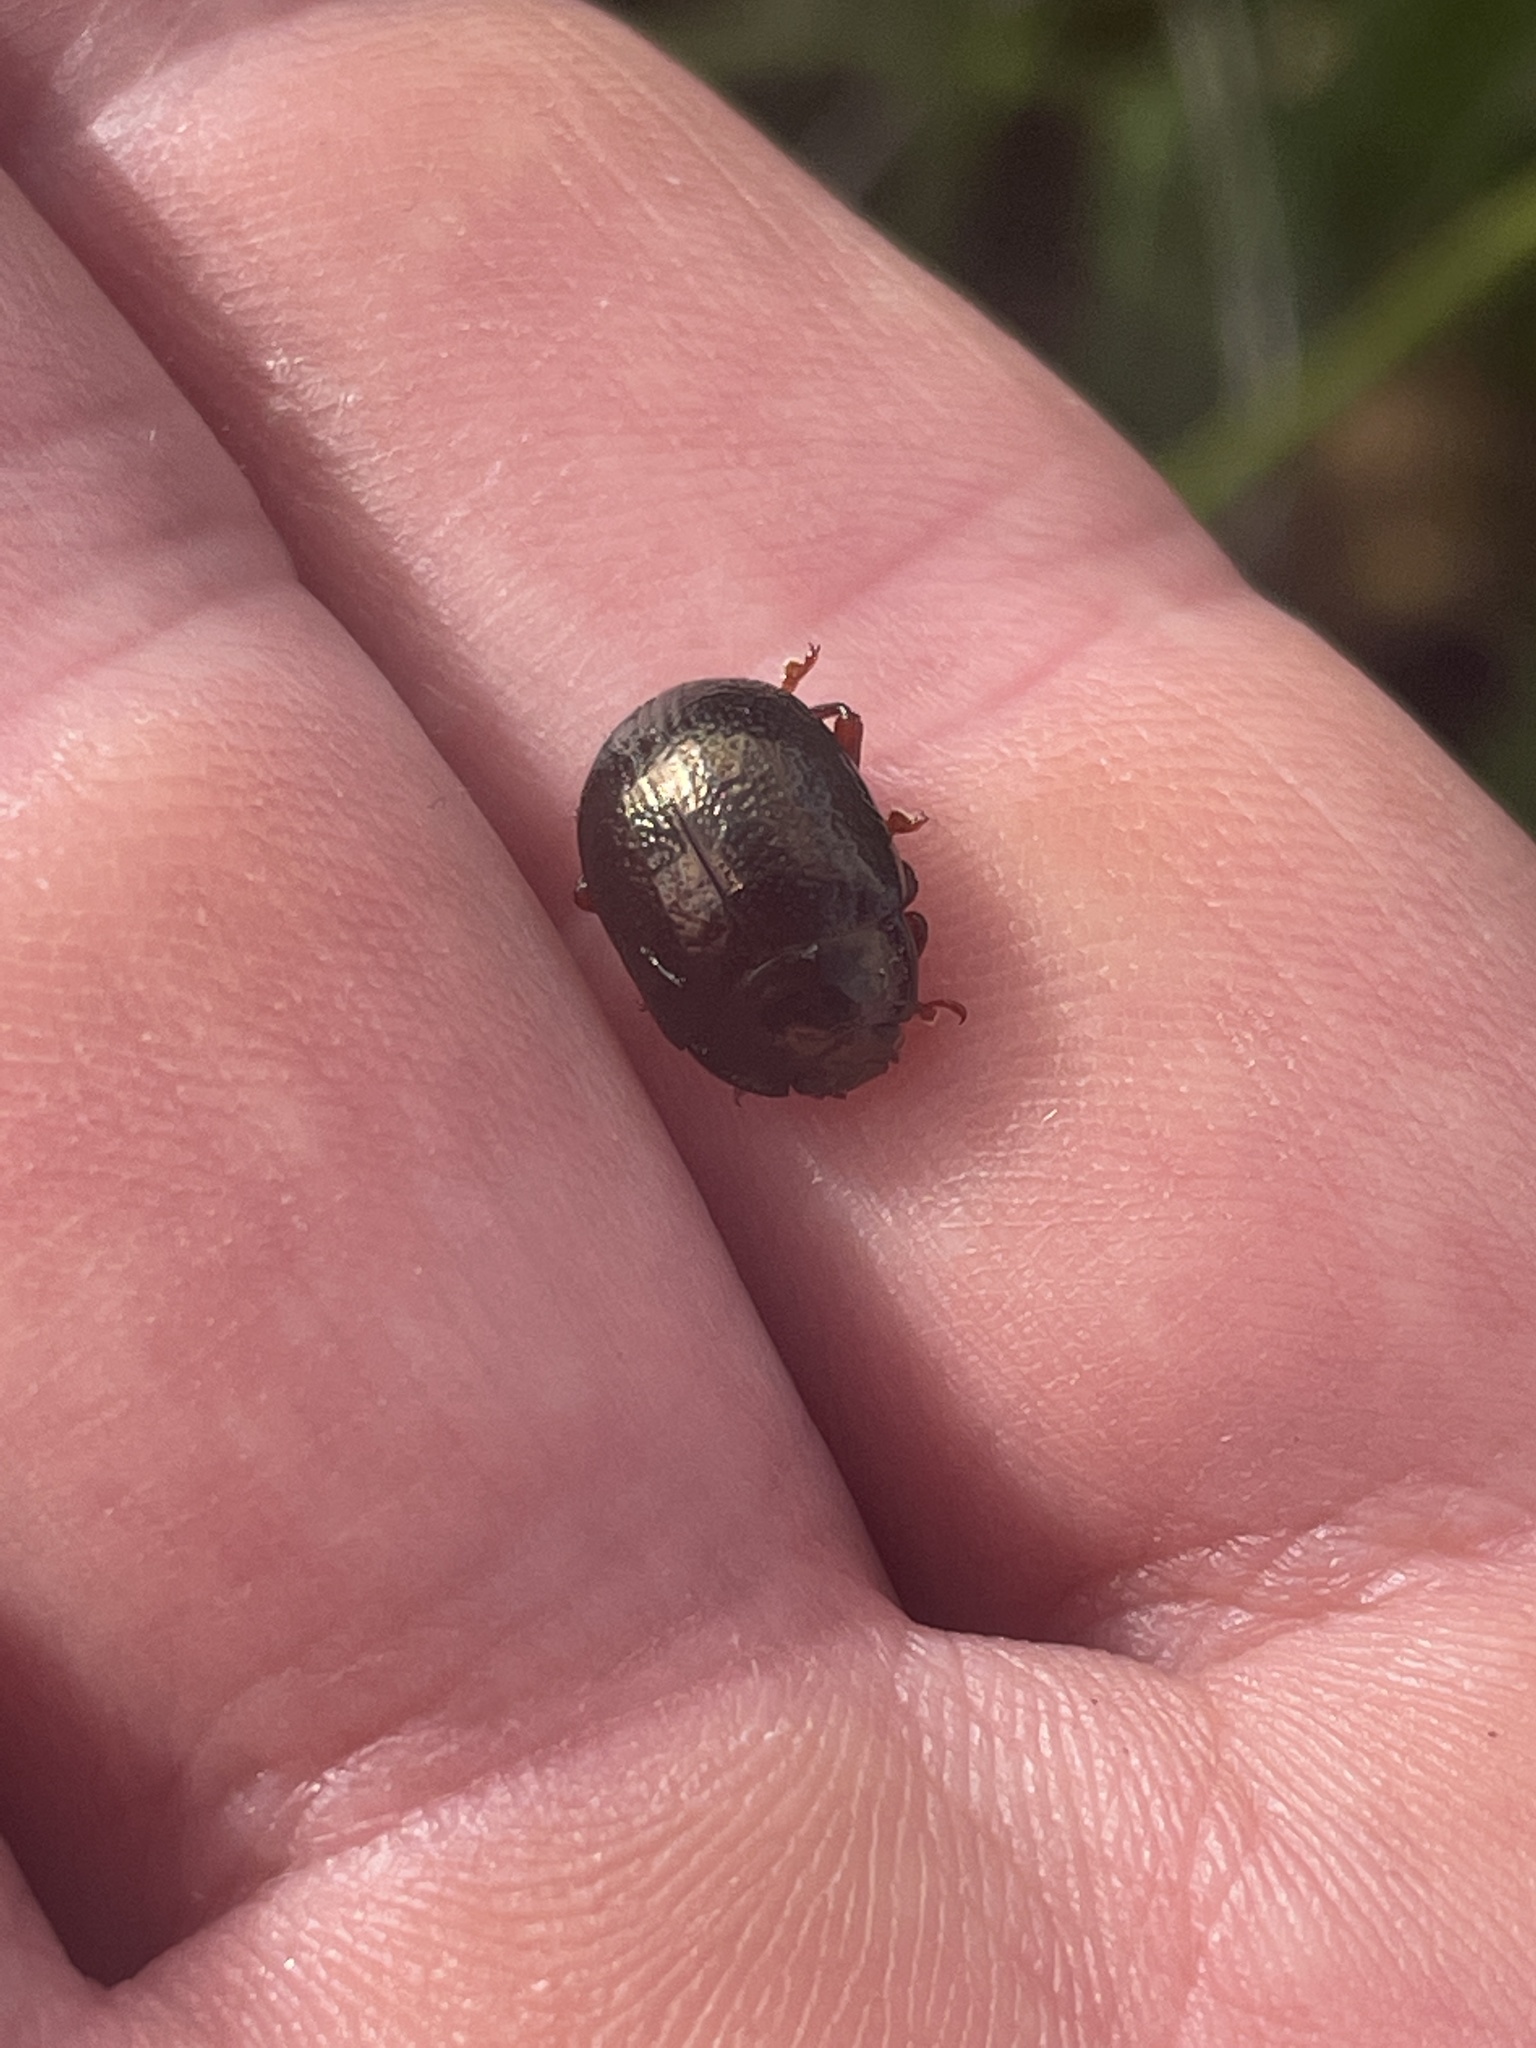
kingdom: Animalia
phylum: Arthropoda
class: Insecta
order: Coleoptera
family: Chrysomelidae
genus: Chrysolina
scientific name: Chrysolina bankii
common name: Leaf beetle
